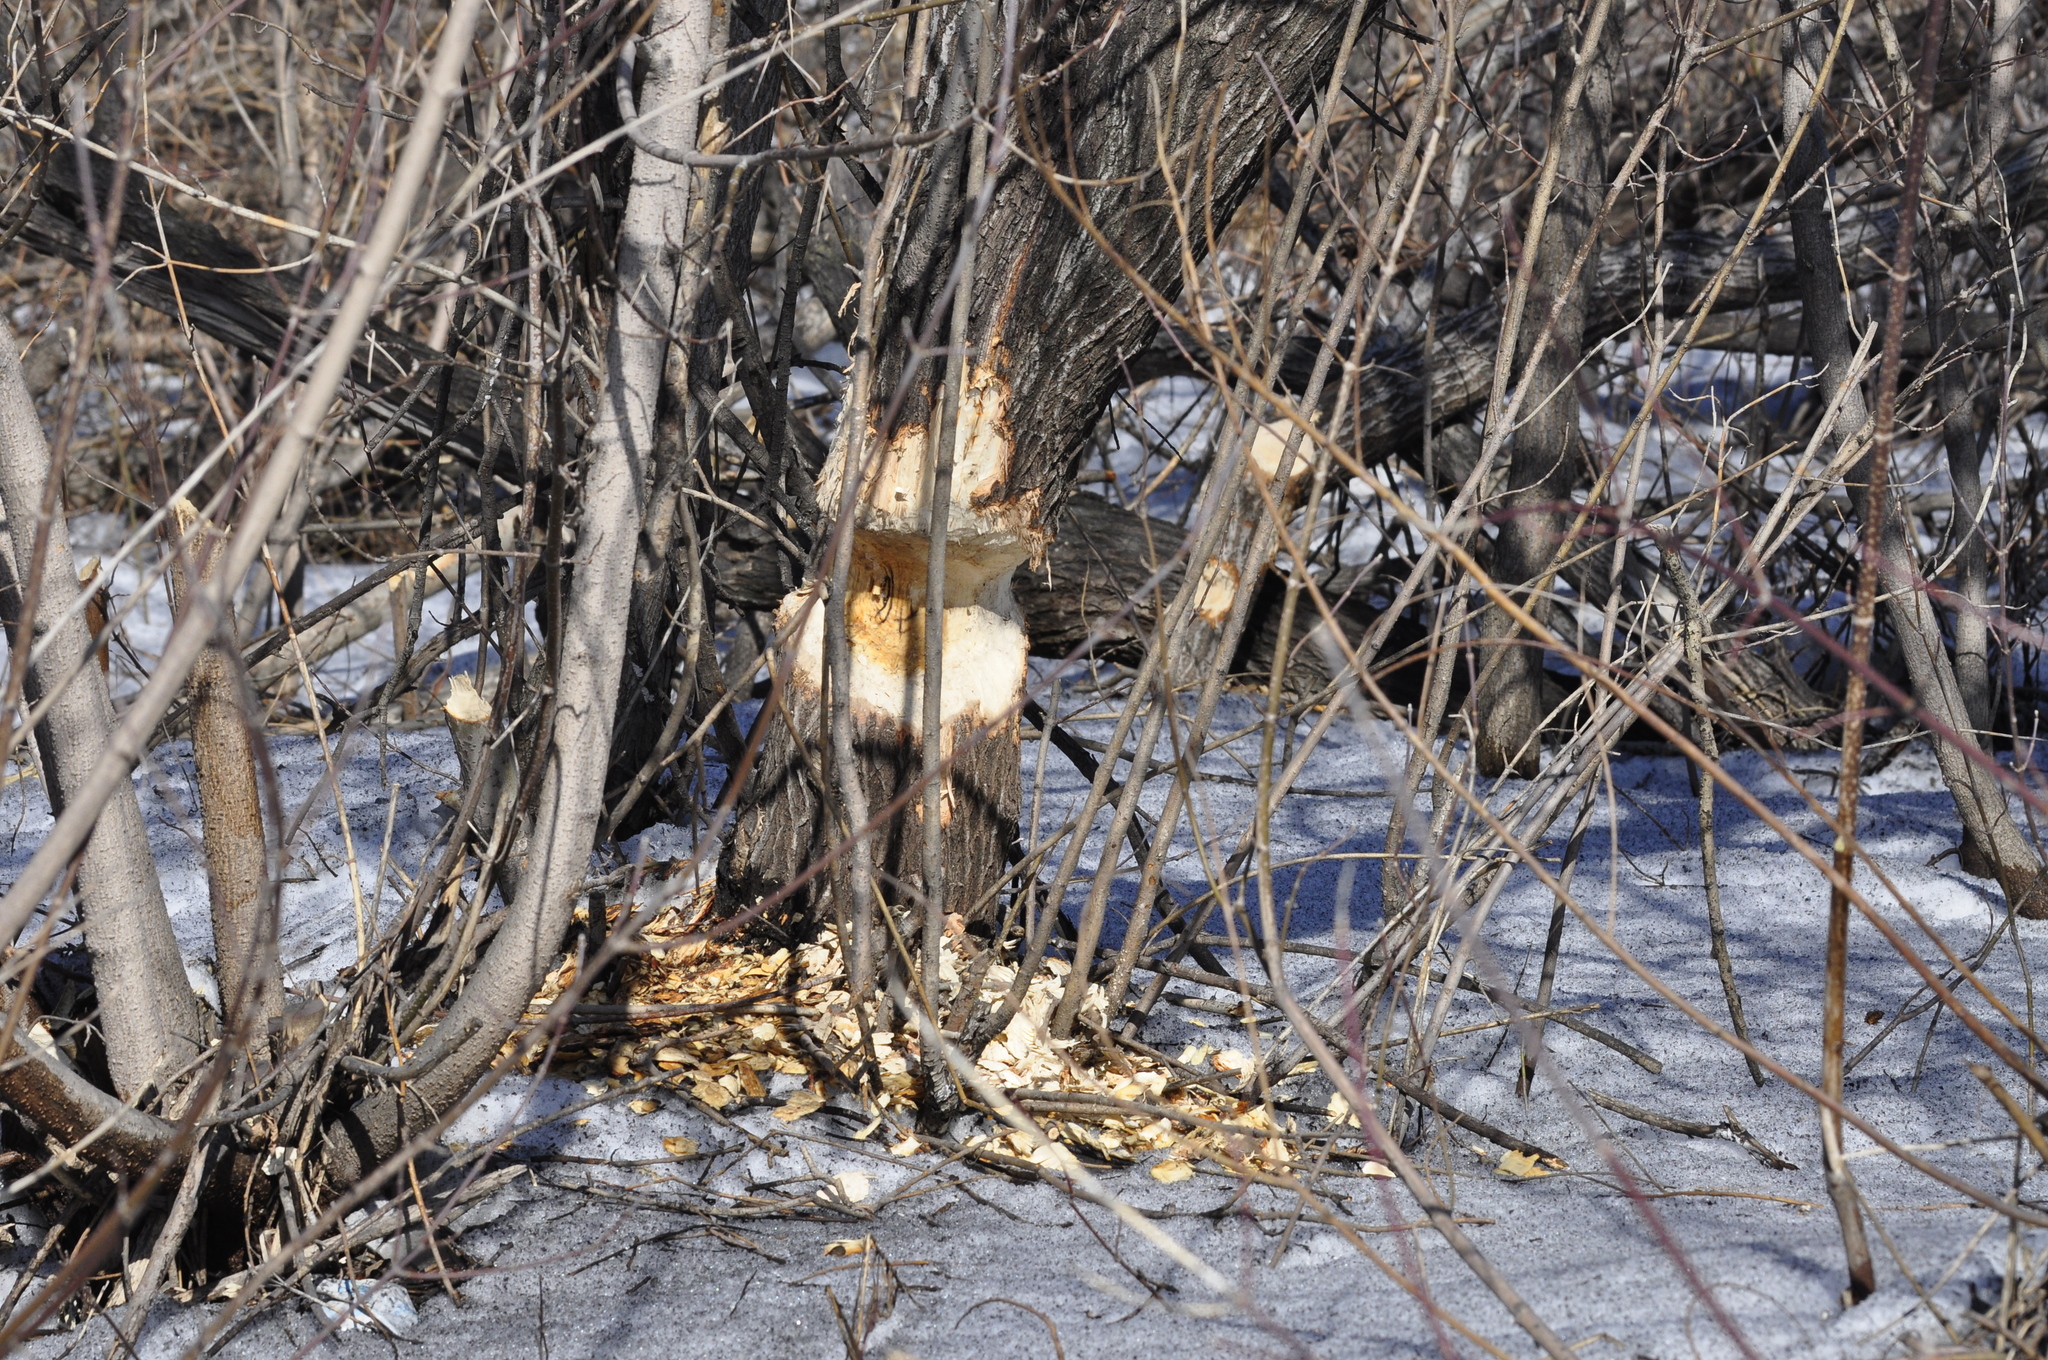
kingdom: Animalia
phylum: Chordata
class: Mammalia
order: Rodentia
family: Castoridae
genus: Castor
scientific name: Castor fiber
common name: Eurasian beaver
